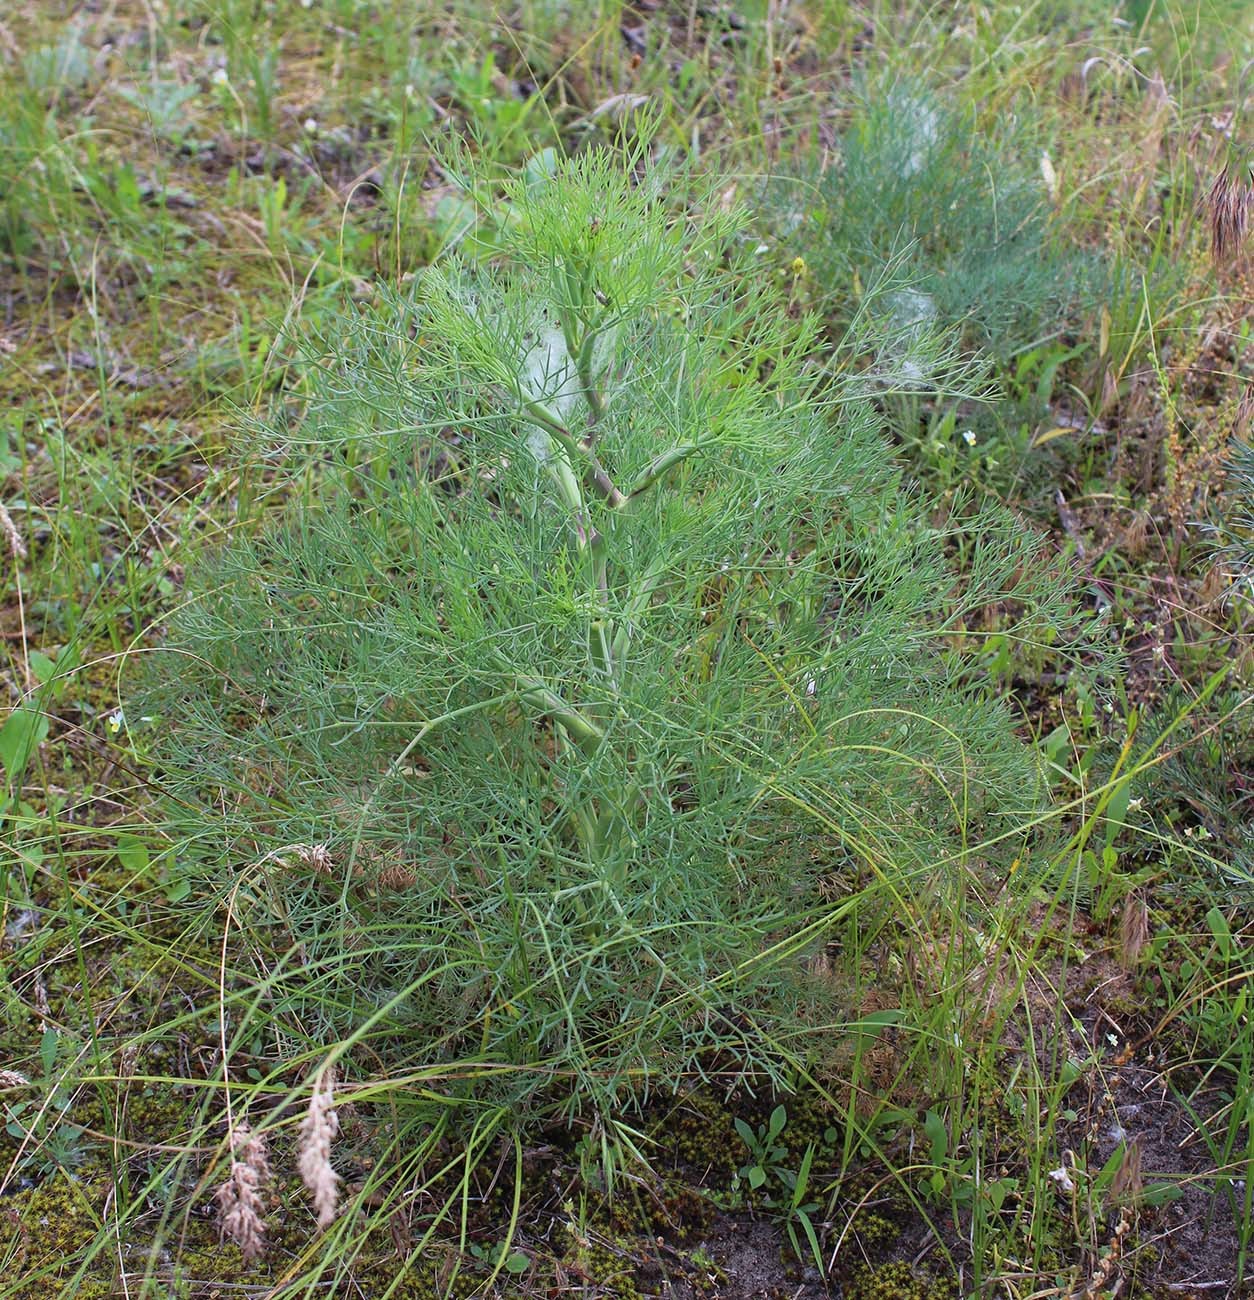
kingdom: Plantae
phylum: Tracheophyta
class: Magnoliopsida
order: Apiales
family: Apiaceae
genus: Seseli
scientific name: Seseli arenarium
